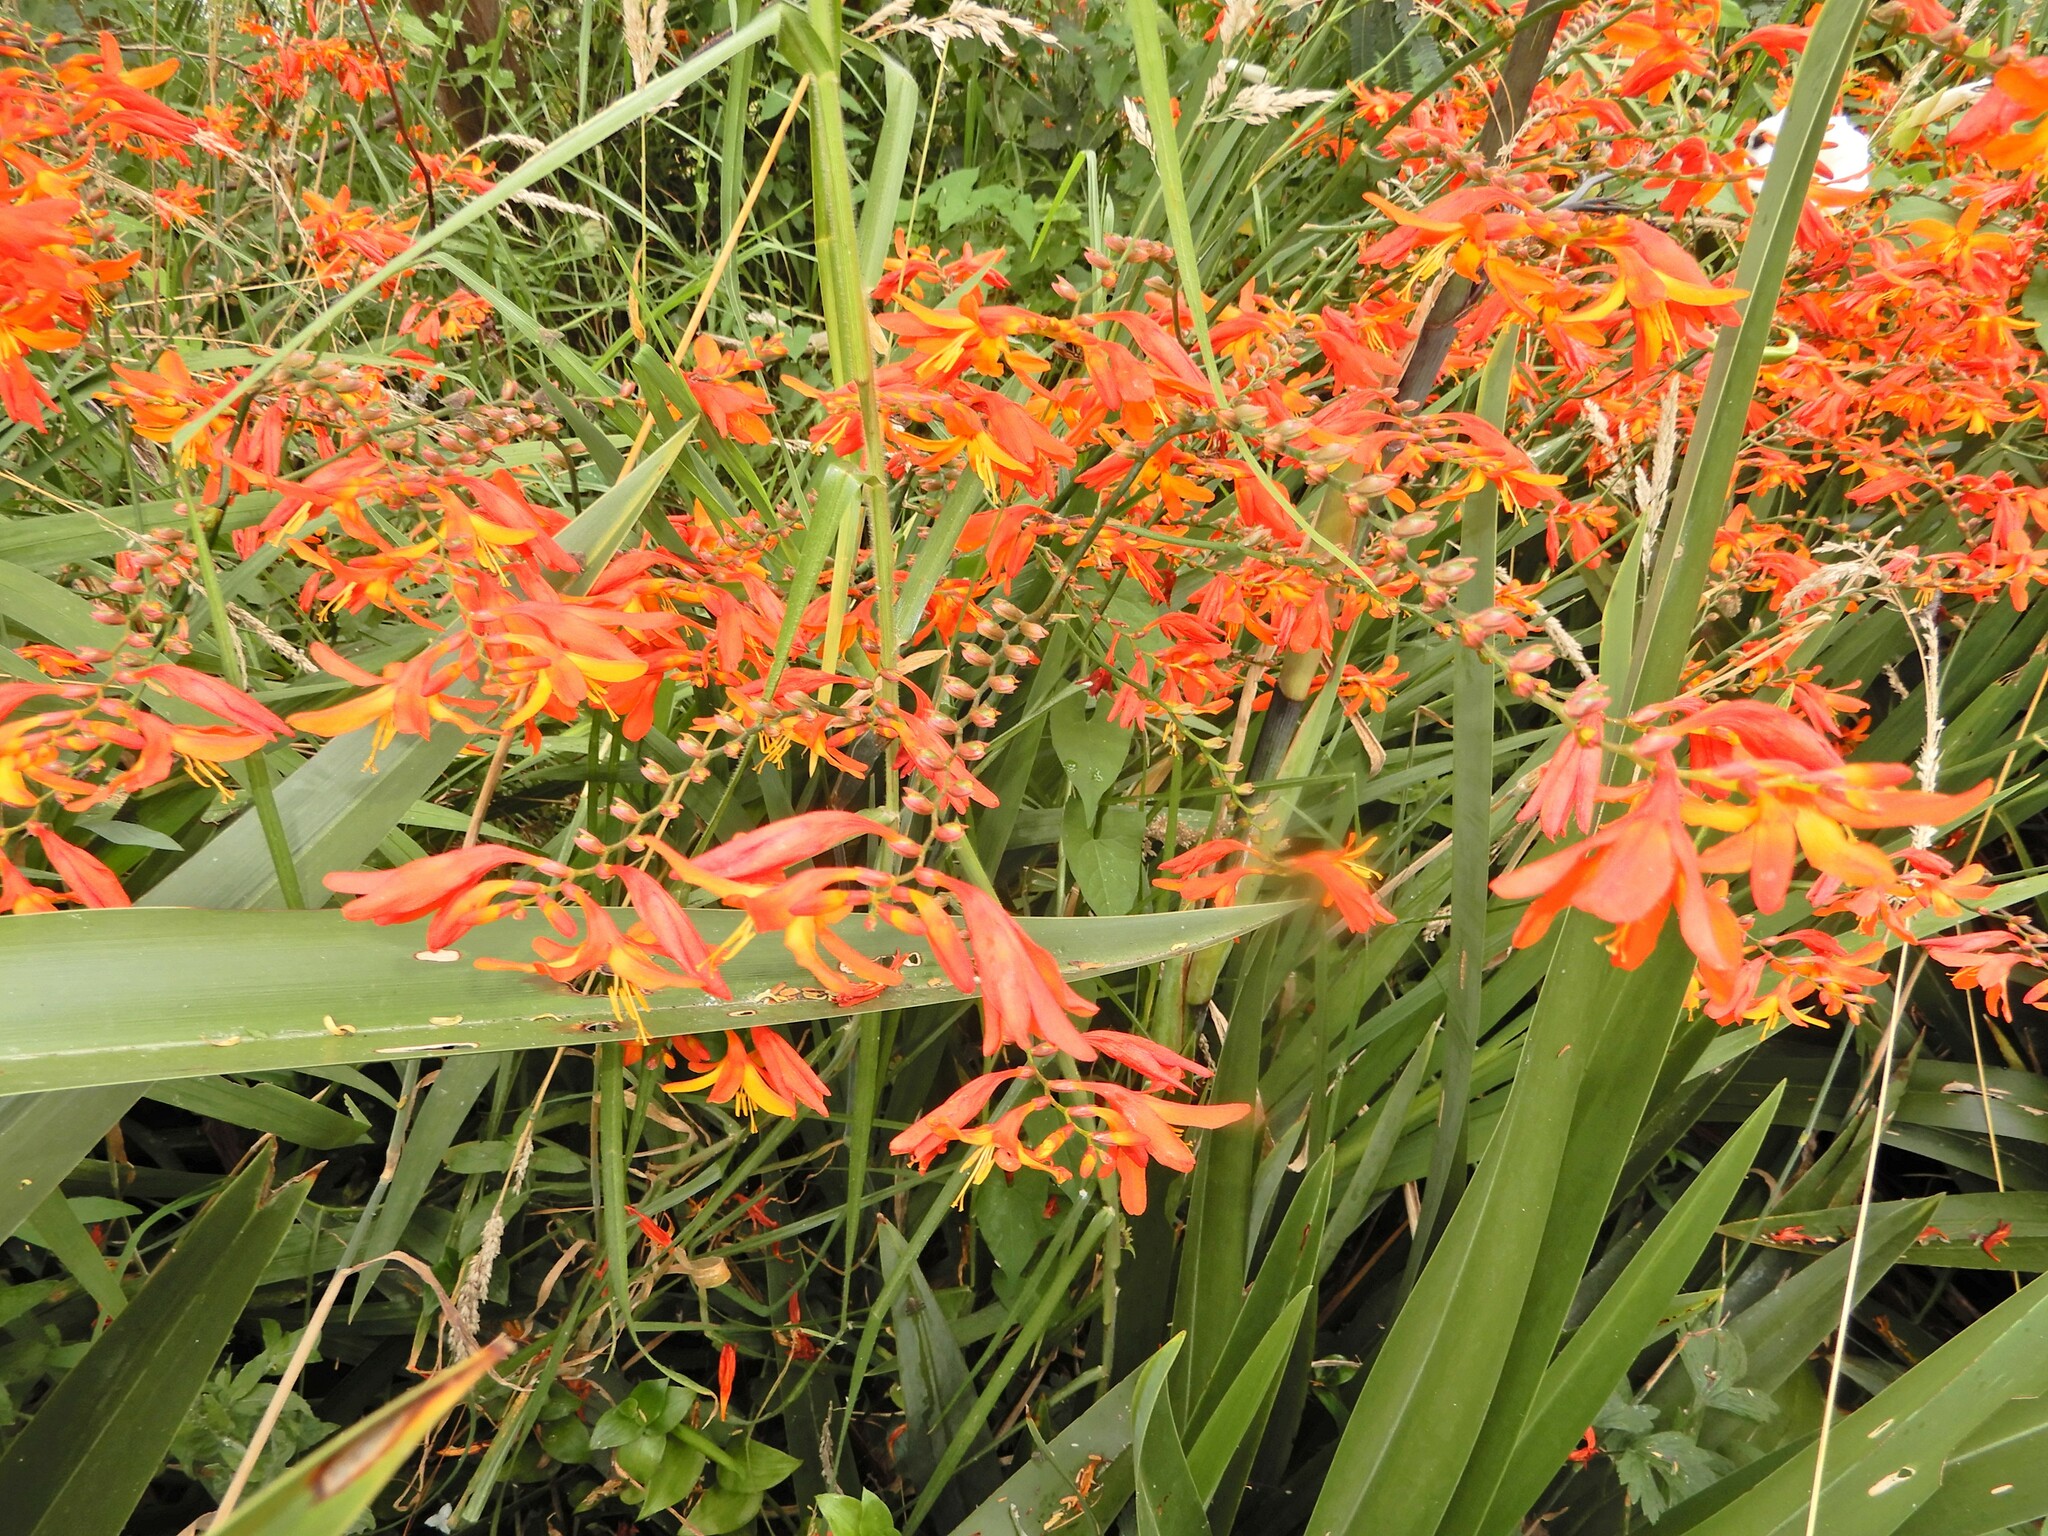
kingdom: Plantae
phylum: Tracheophyta
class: Liliopsida
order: Asparagales
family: Iridaceae
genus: Crocosmia
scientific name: Crocosmia crocosmiiflora
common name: Montbretia
